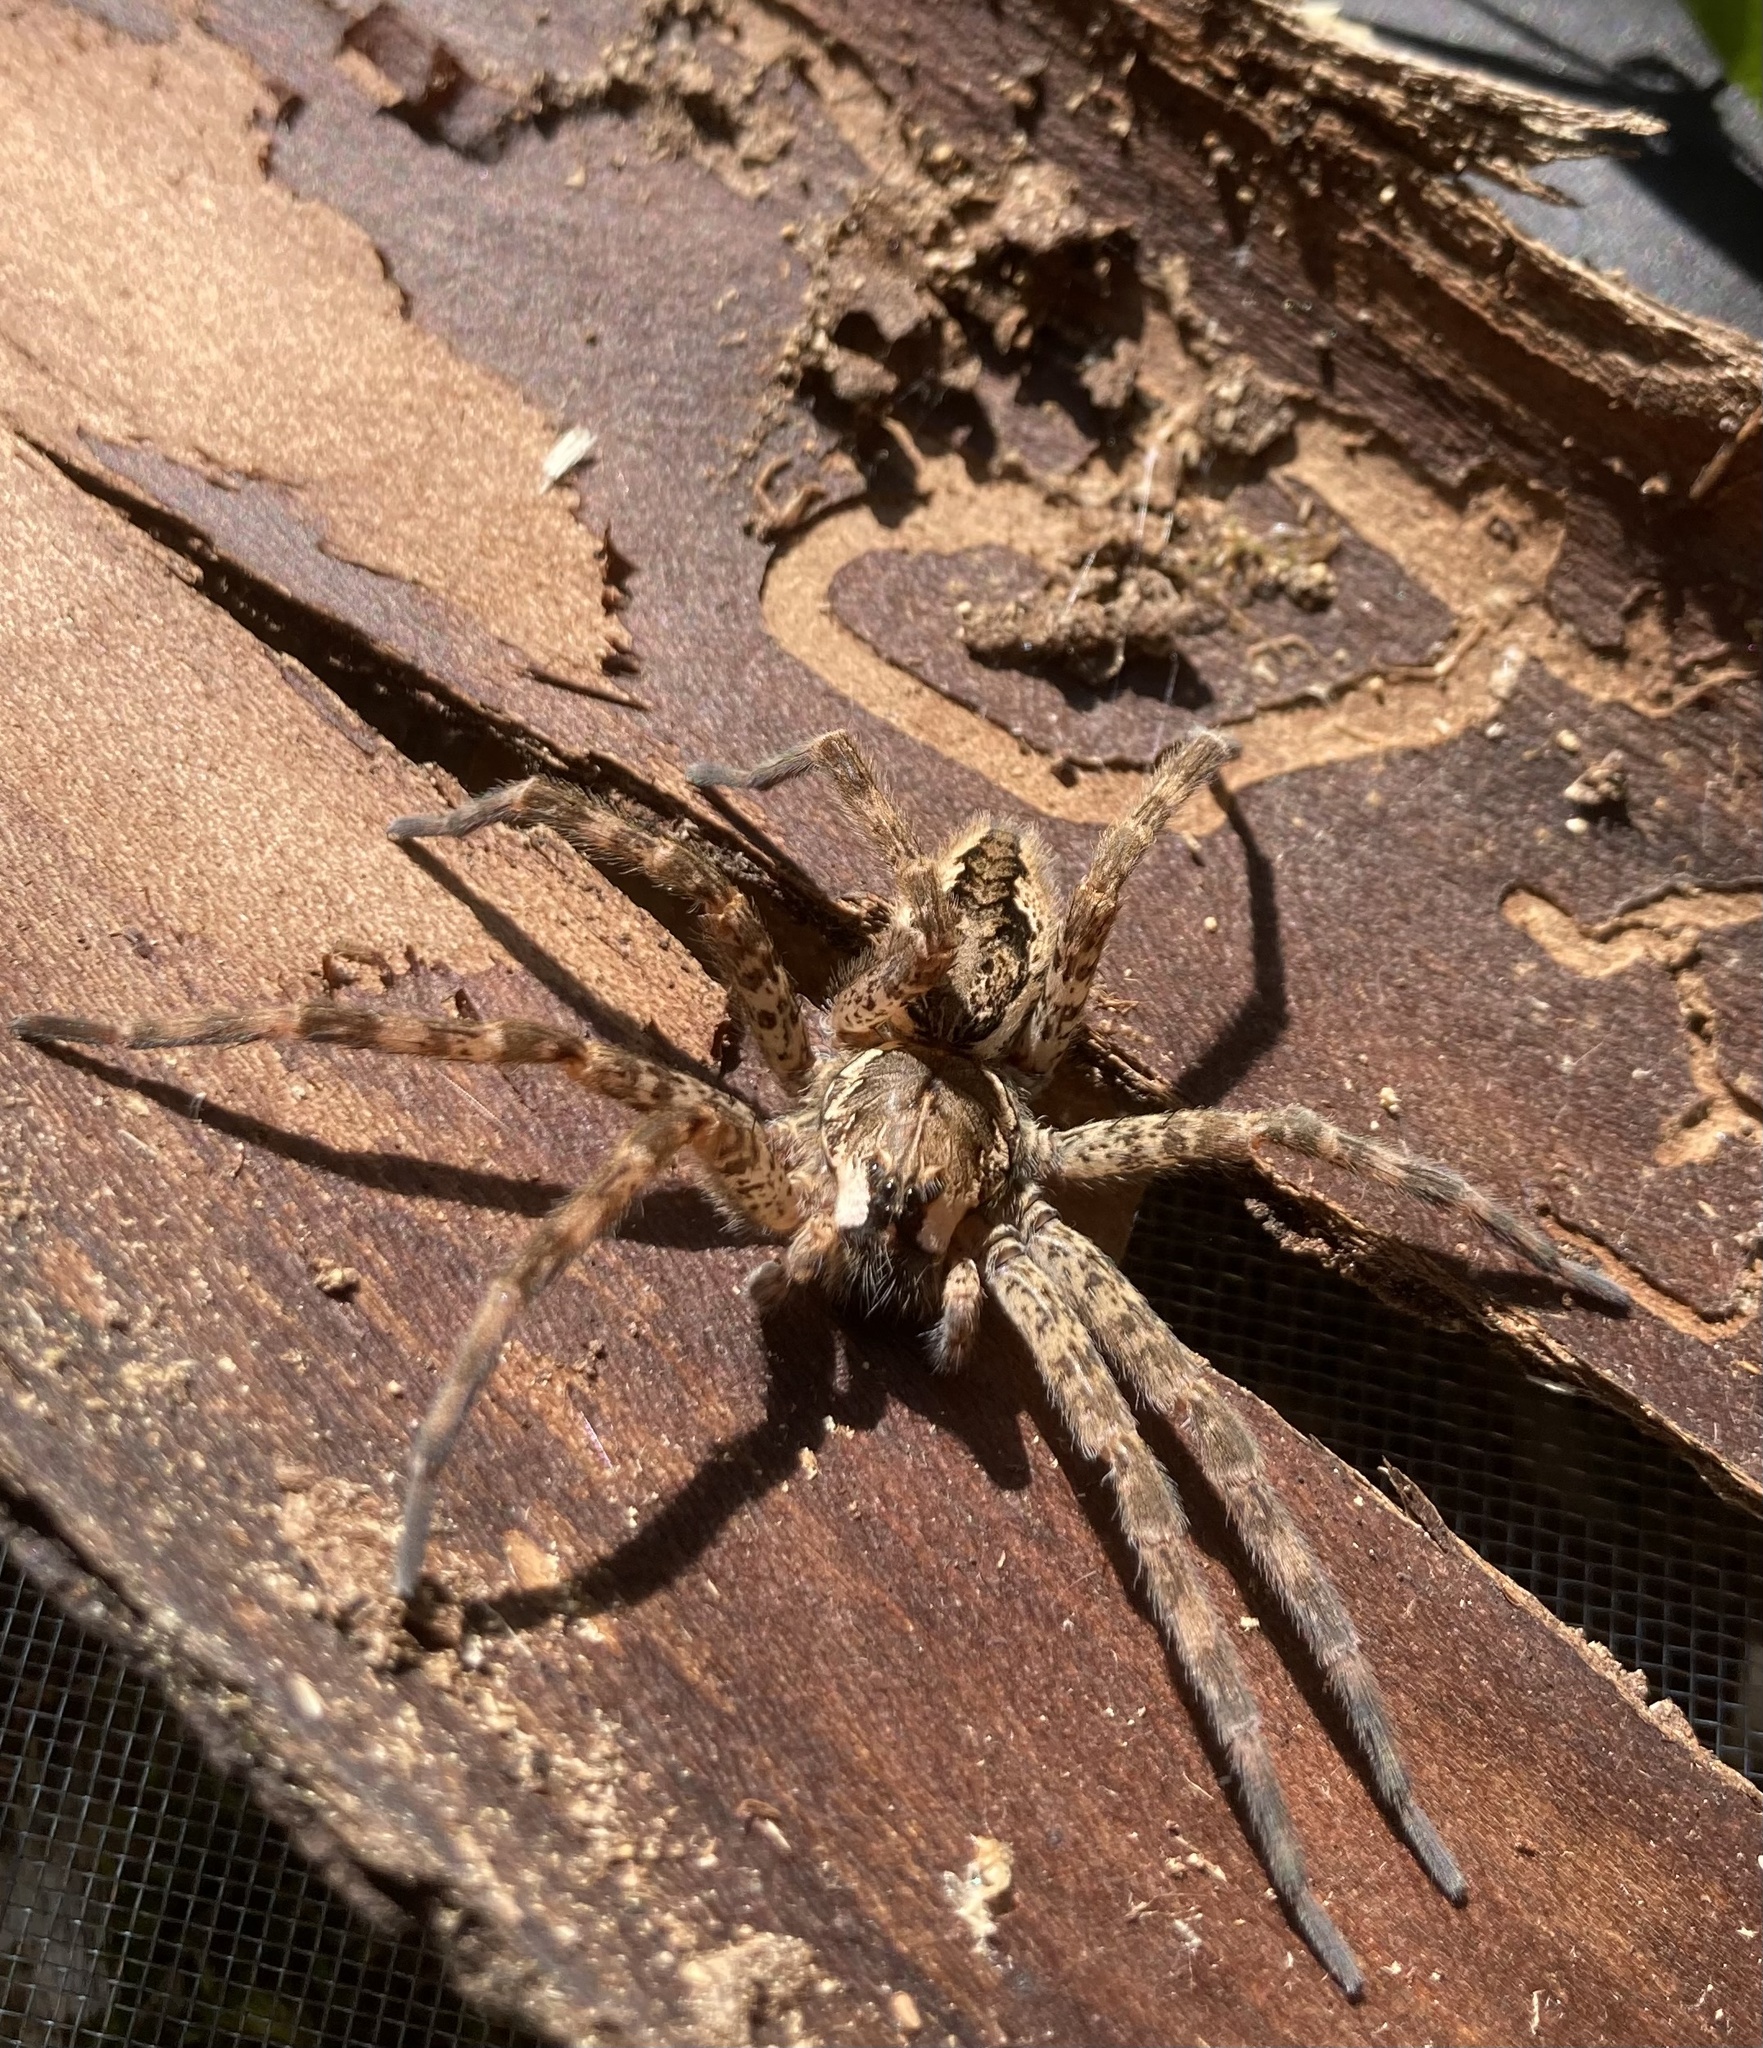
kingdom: Animalia
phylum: Arthropoda
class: Arachnida
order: Araneae
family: Pisauridae
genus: Dolomedes
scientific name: Dolomedes tenebrosus
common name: Dark fishing spider
